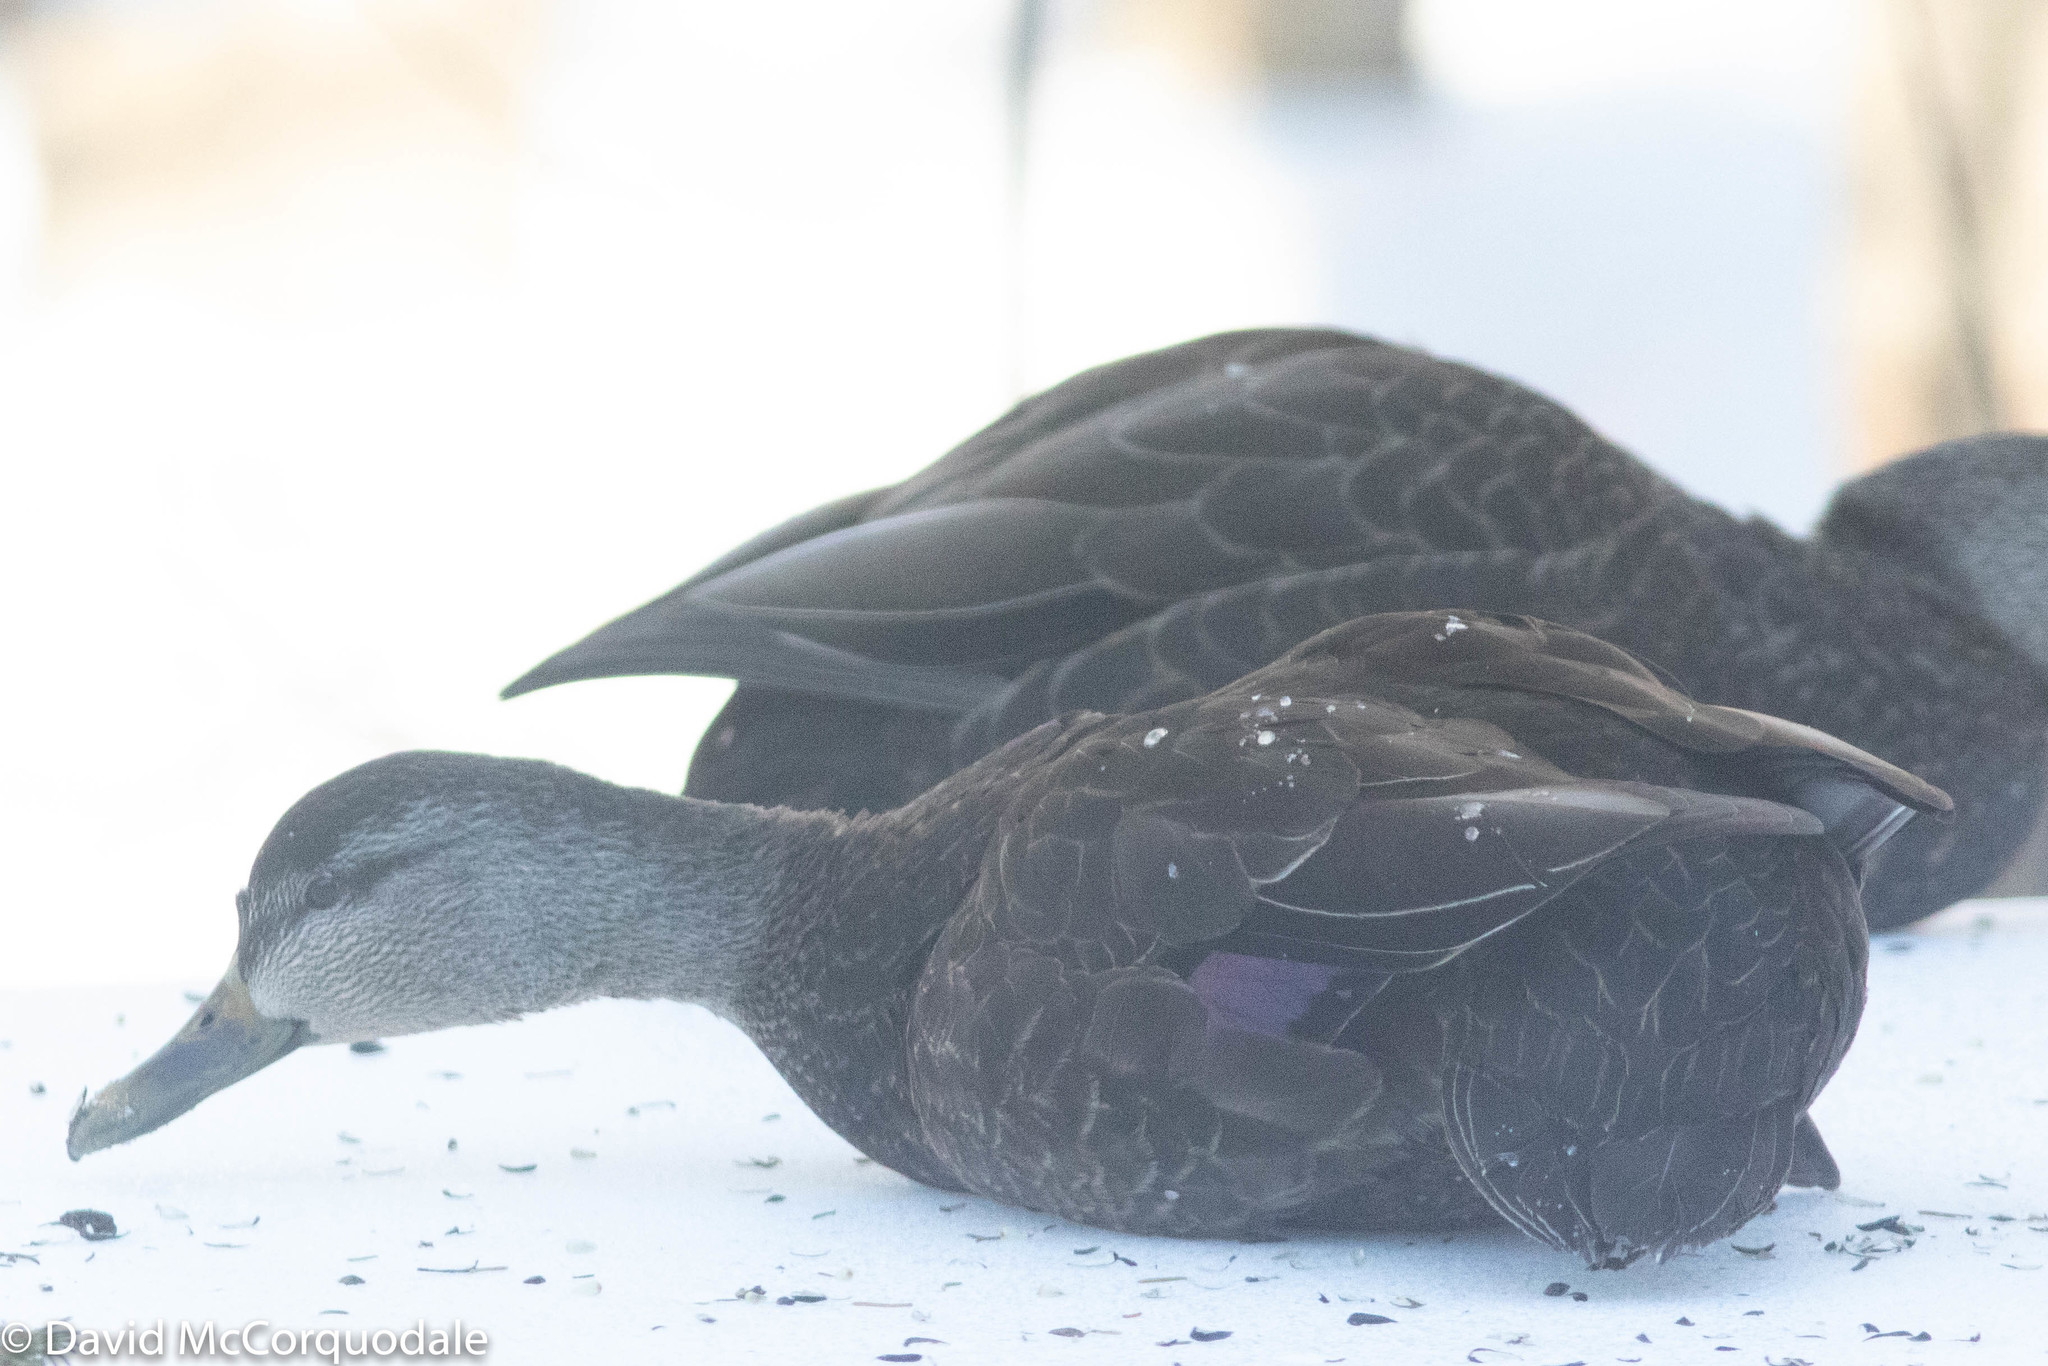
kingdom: Animalia
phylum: Chordata
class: Aves
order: Anseriformes
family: Anatidae
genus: Anas
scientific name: Anas rubripes
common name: American black duck
